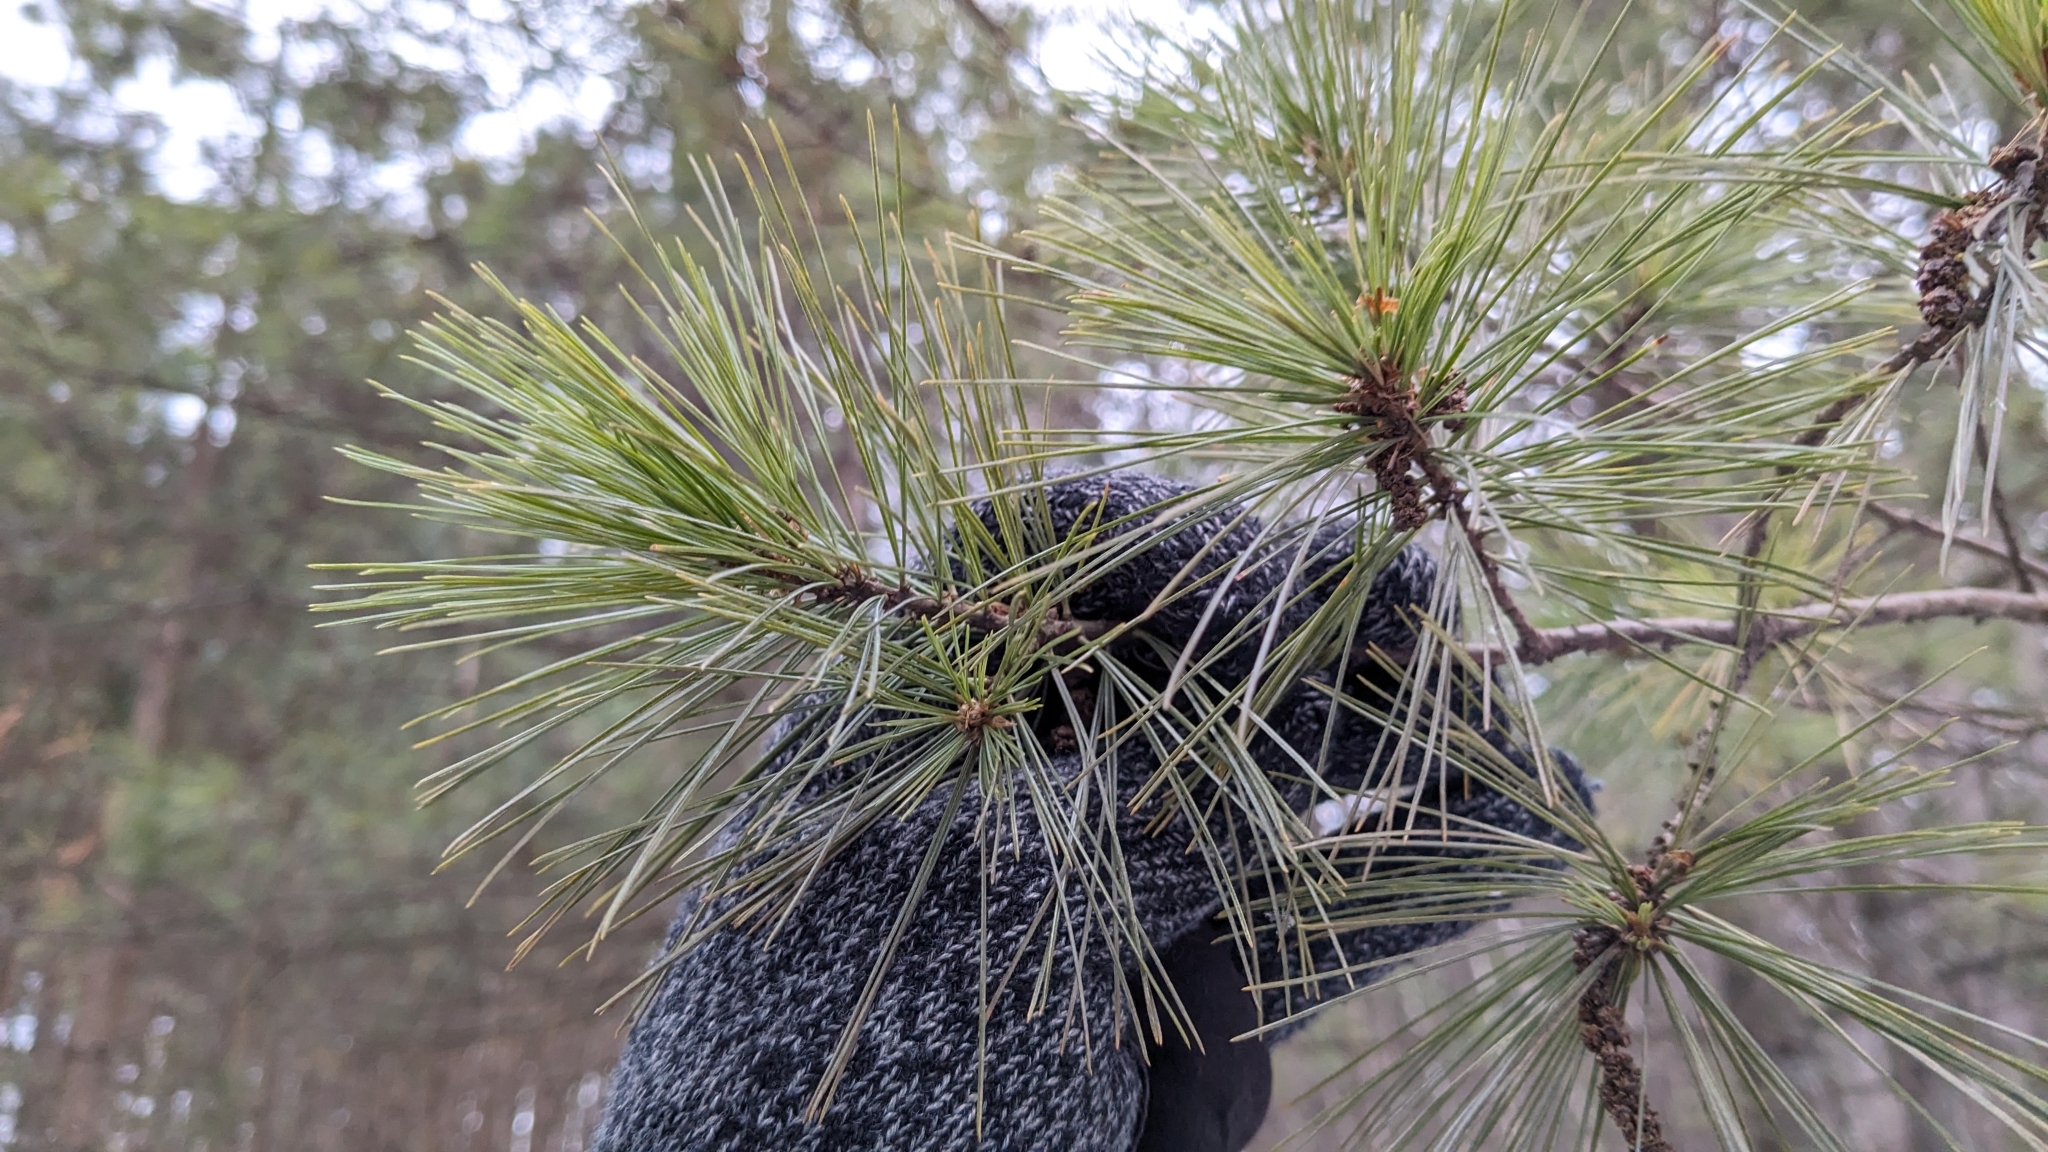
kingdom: Plantae
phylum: Tracheophyta
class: Pinopsida
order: Pinales
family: Pinaceae
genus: Pinus
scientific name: Pinus resinosa
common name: Norway pine
